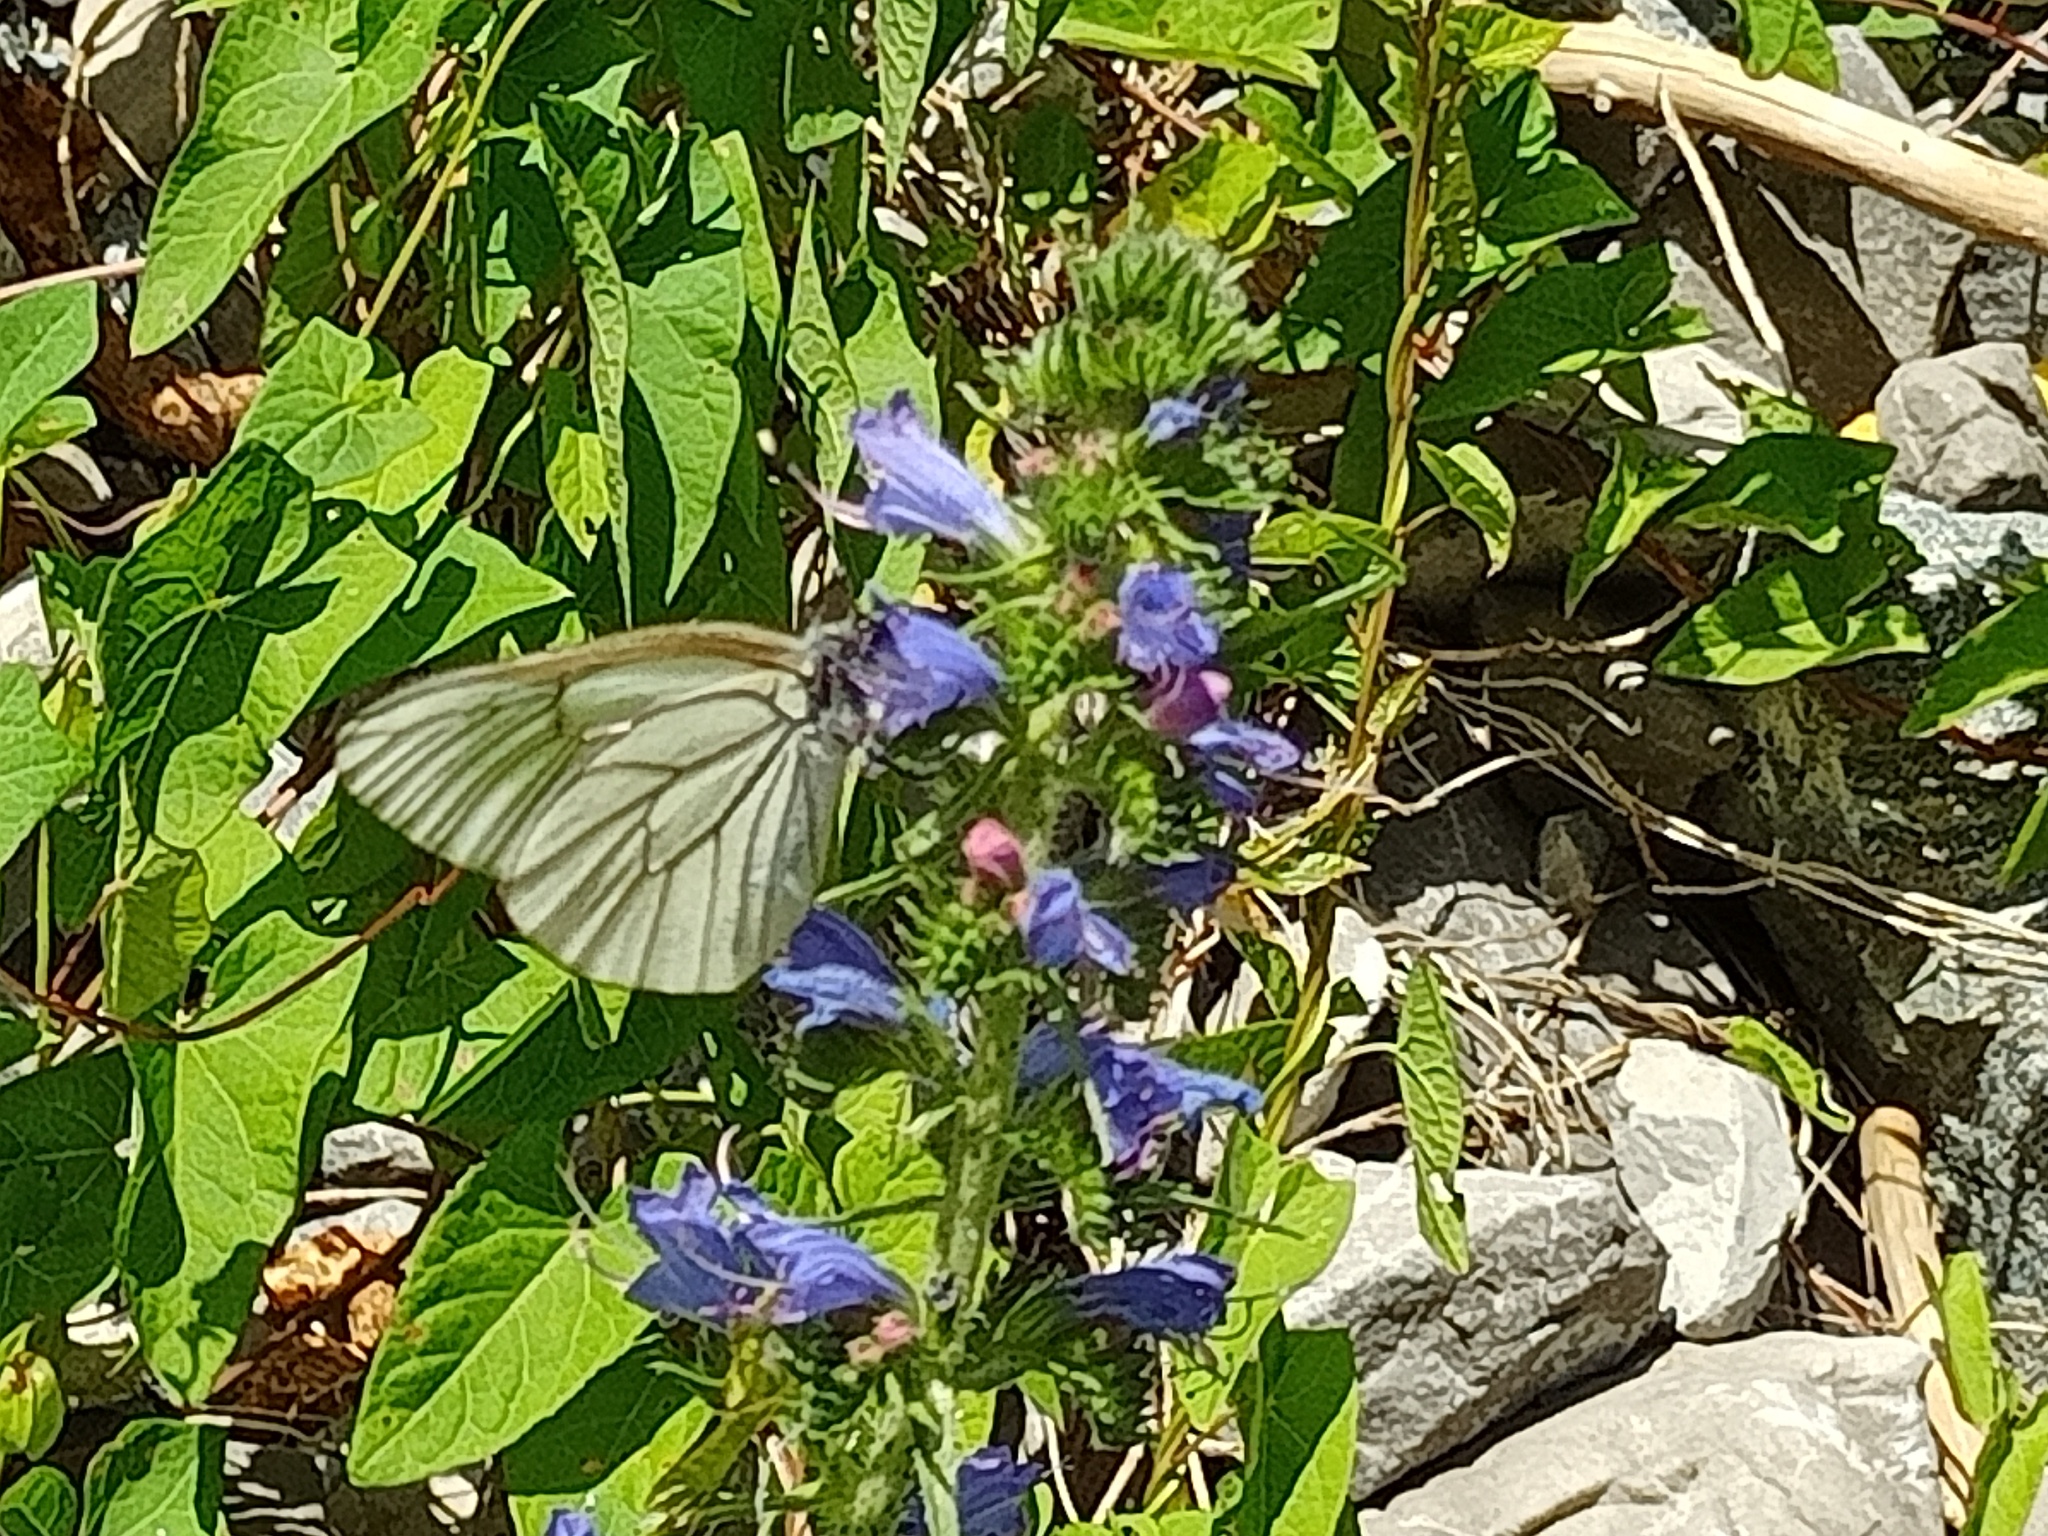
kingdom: Animalia
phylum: Arthropoda
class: Insecta
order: Lepidoptera
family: Pieridae
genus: Aporia
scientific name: Aporia crataegi
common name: Black-veined white
